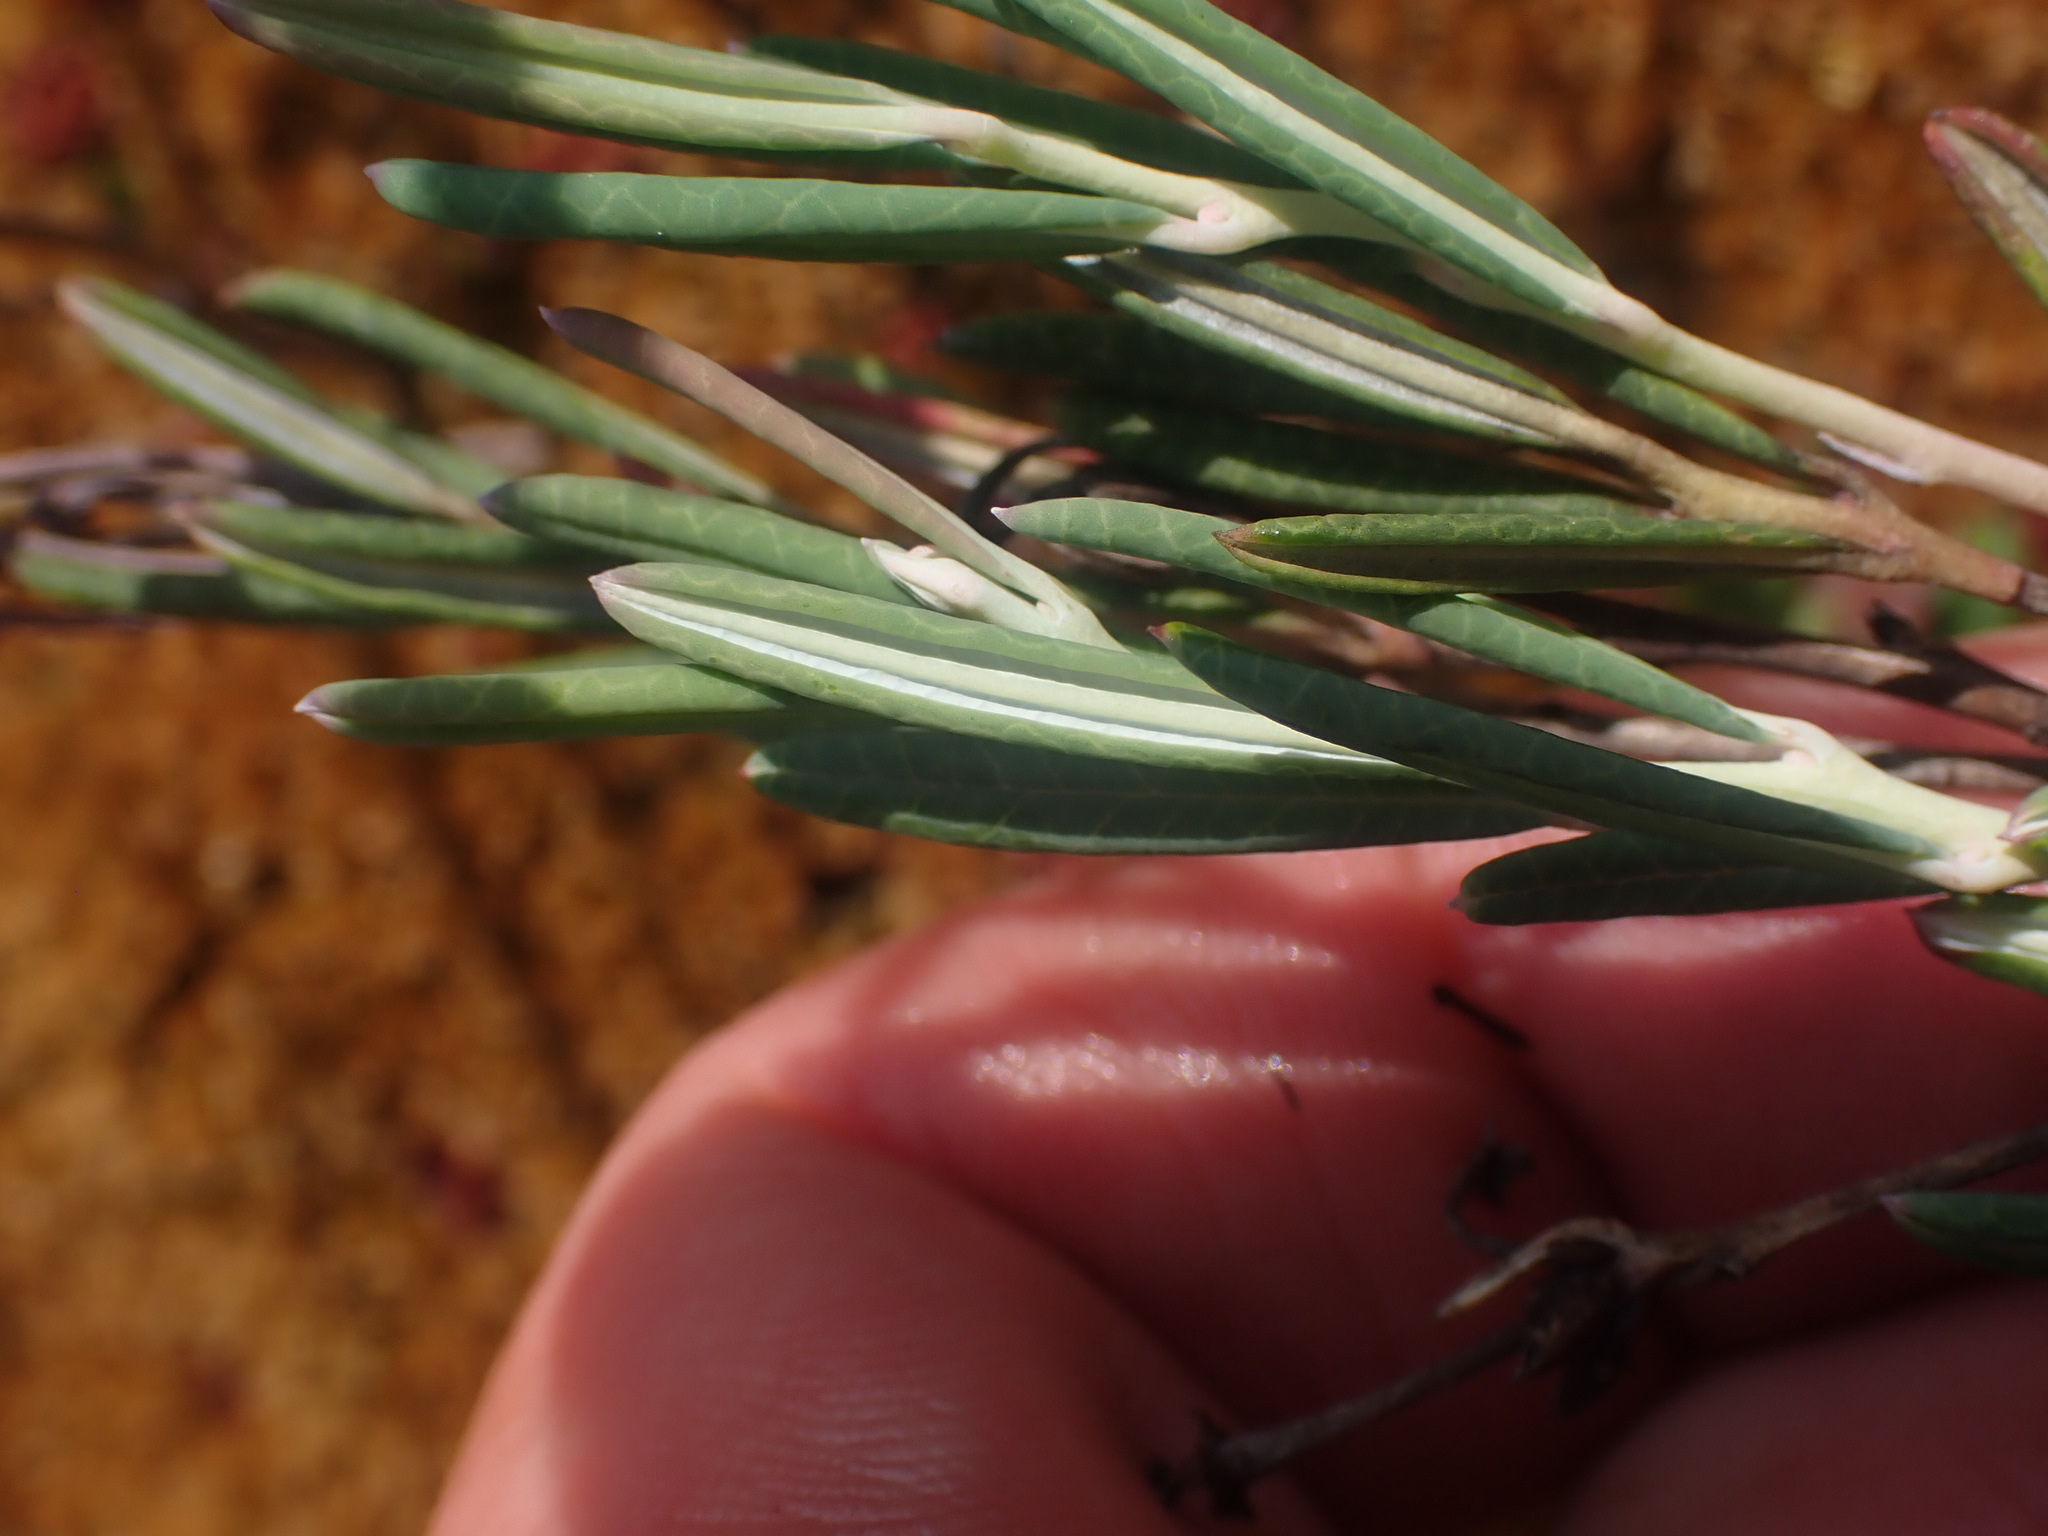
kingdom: Plantae
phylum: Tracheophyta
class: Magnoliopsida
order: Ericales
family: Ericaceae
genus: Andromeda
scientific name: Andromeda polifolia
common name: Bog-rosemary
